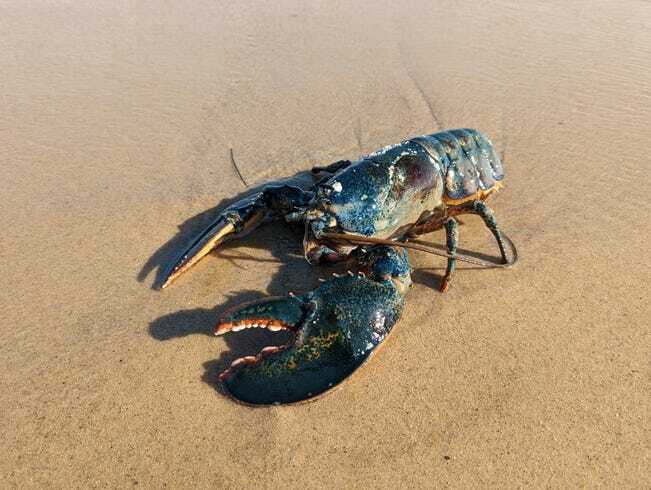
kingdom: Animalia
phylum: Arthropoda
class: Malacostraca
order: Decapoda
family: Nephropidae
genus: Homarus
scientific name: Homarus americanus
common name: American lobster
